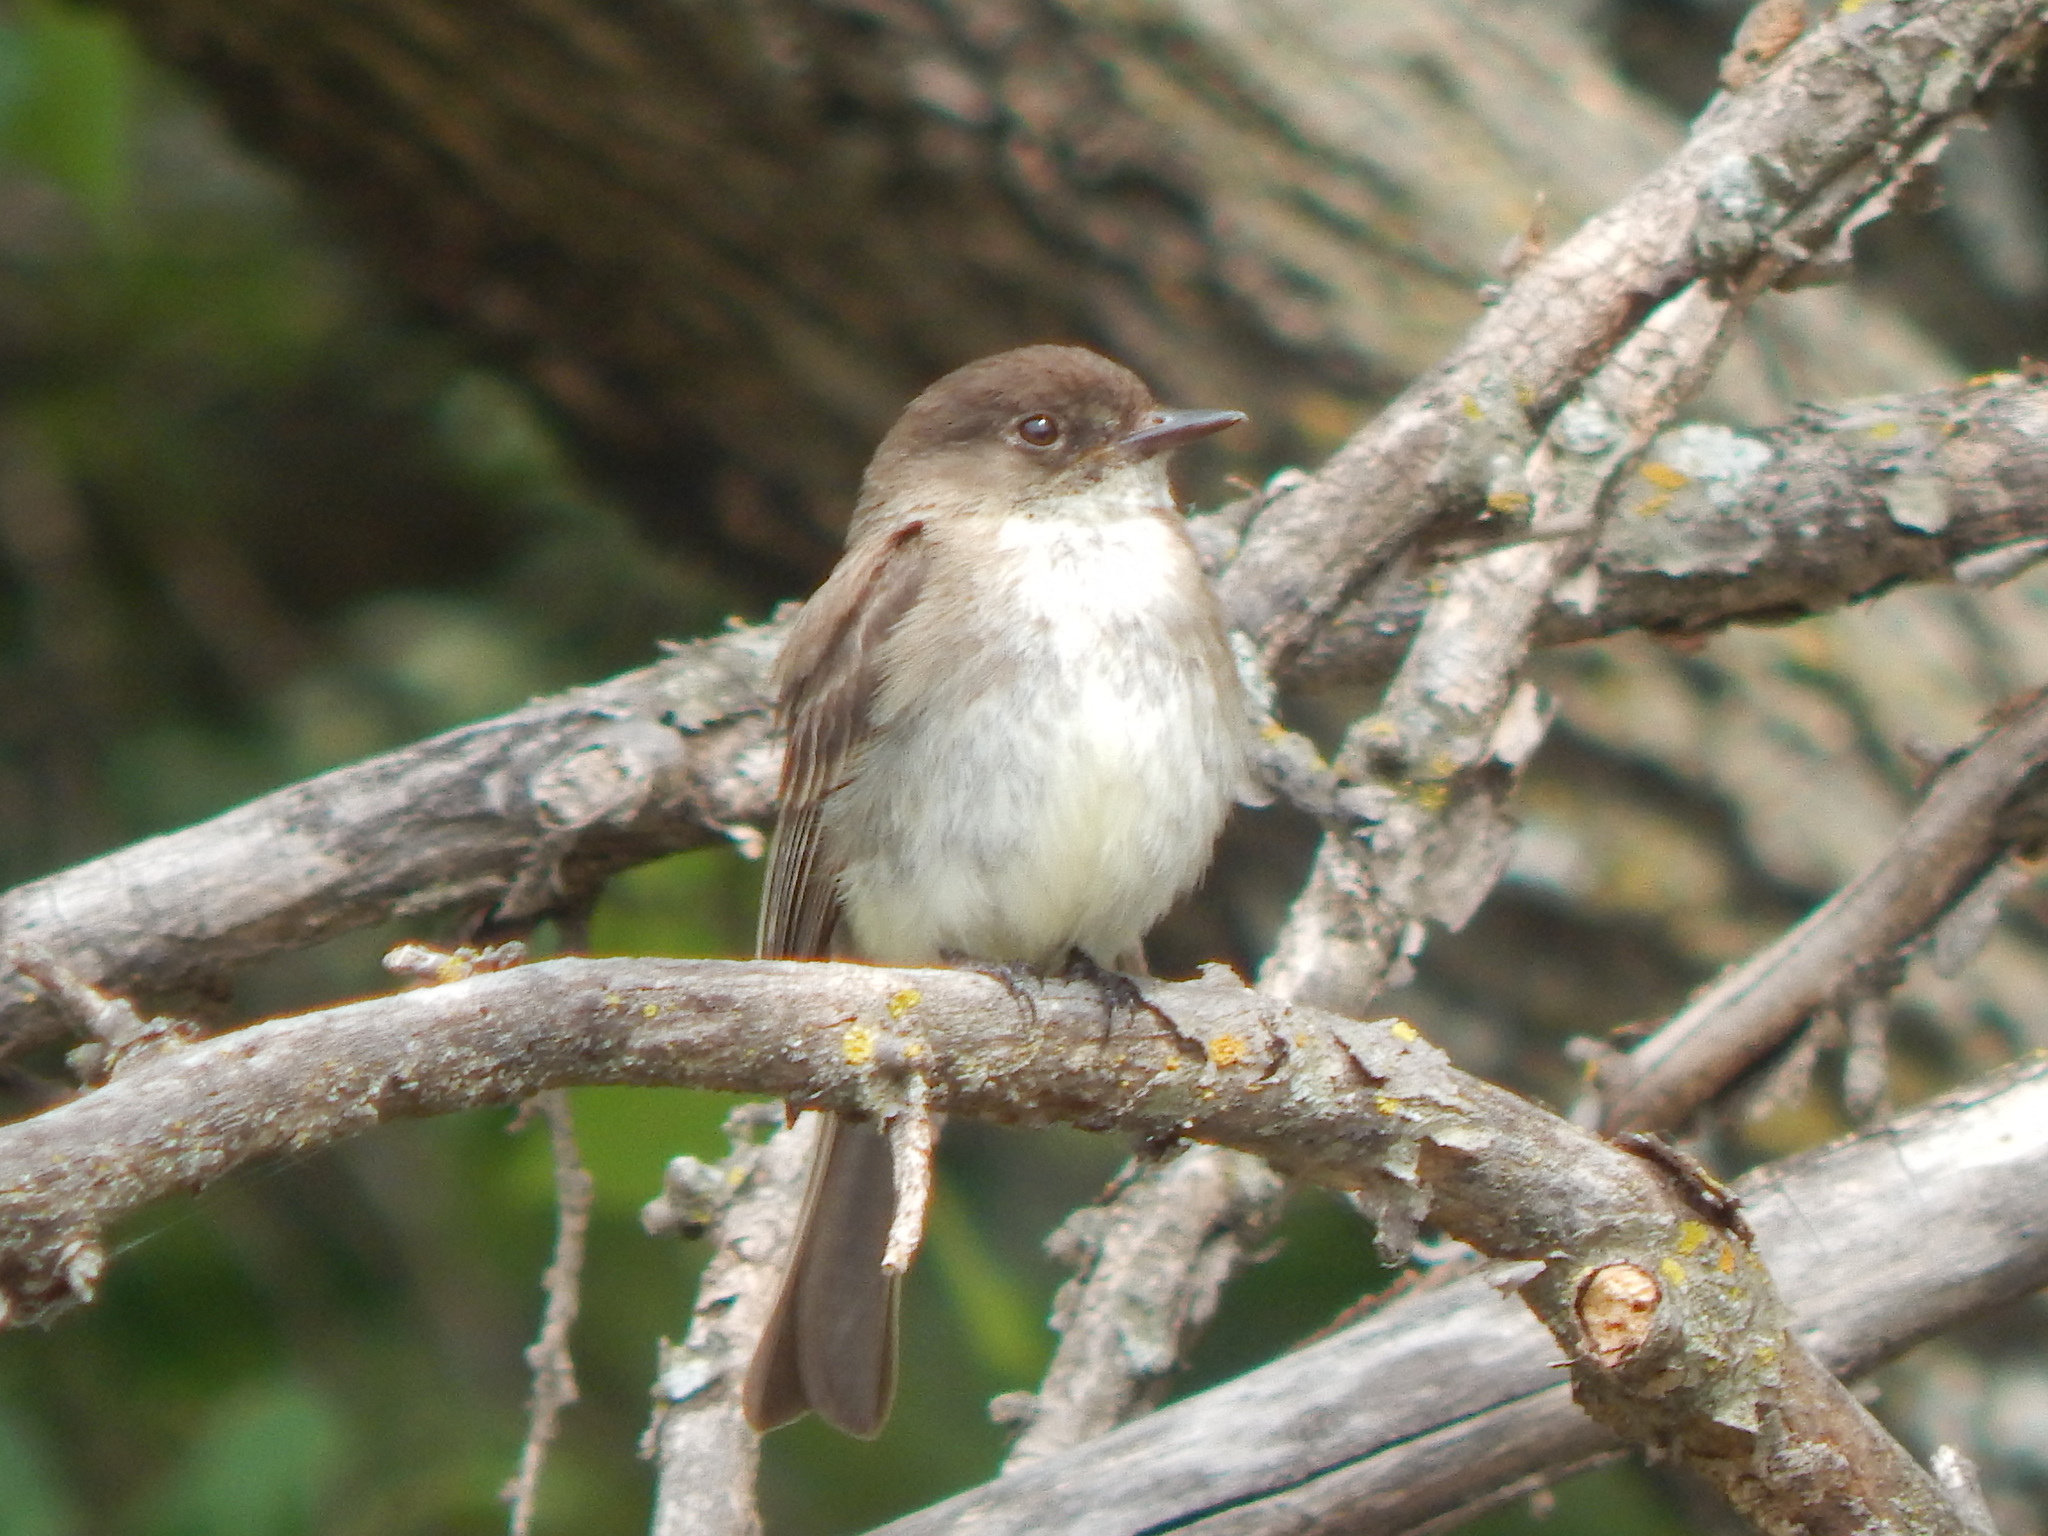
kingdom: Animalia
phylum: Chordata
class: Aves
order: Passeriformes
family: Tyrannidae
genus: Sayornis
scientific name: Sayornis phoebe
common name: Eastern phoebe
